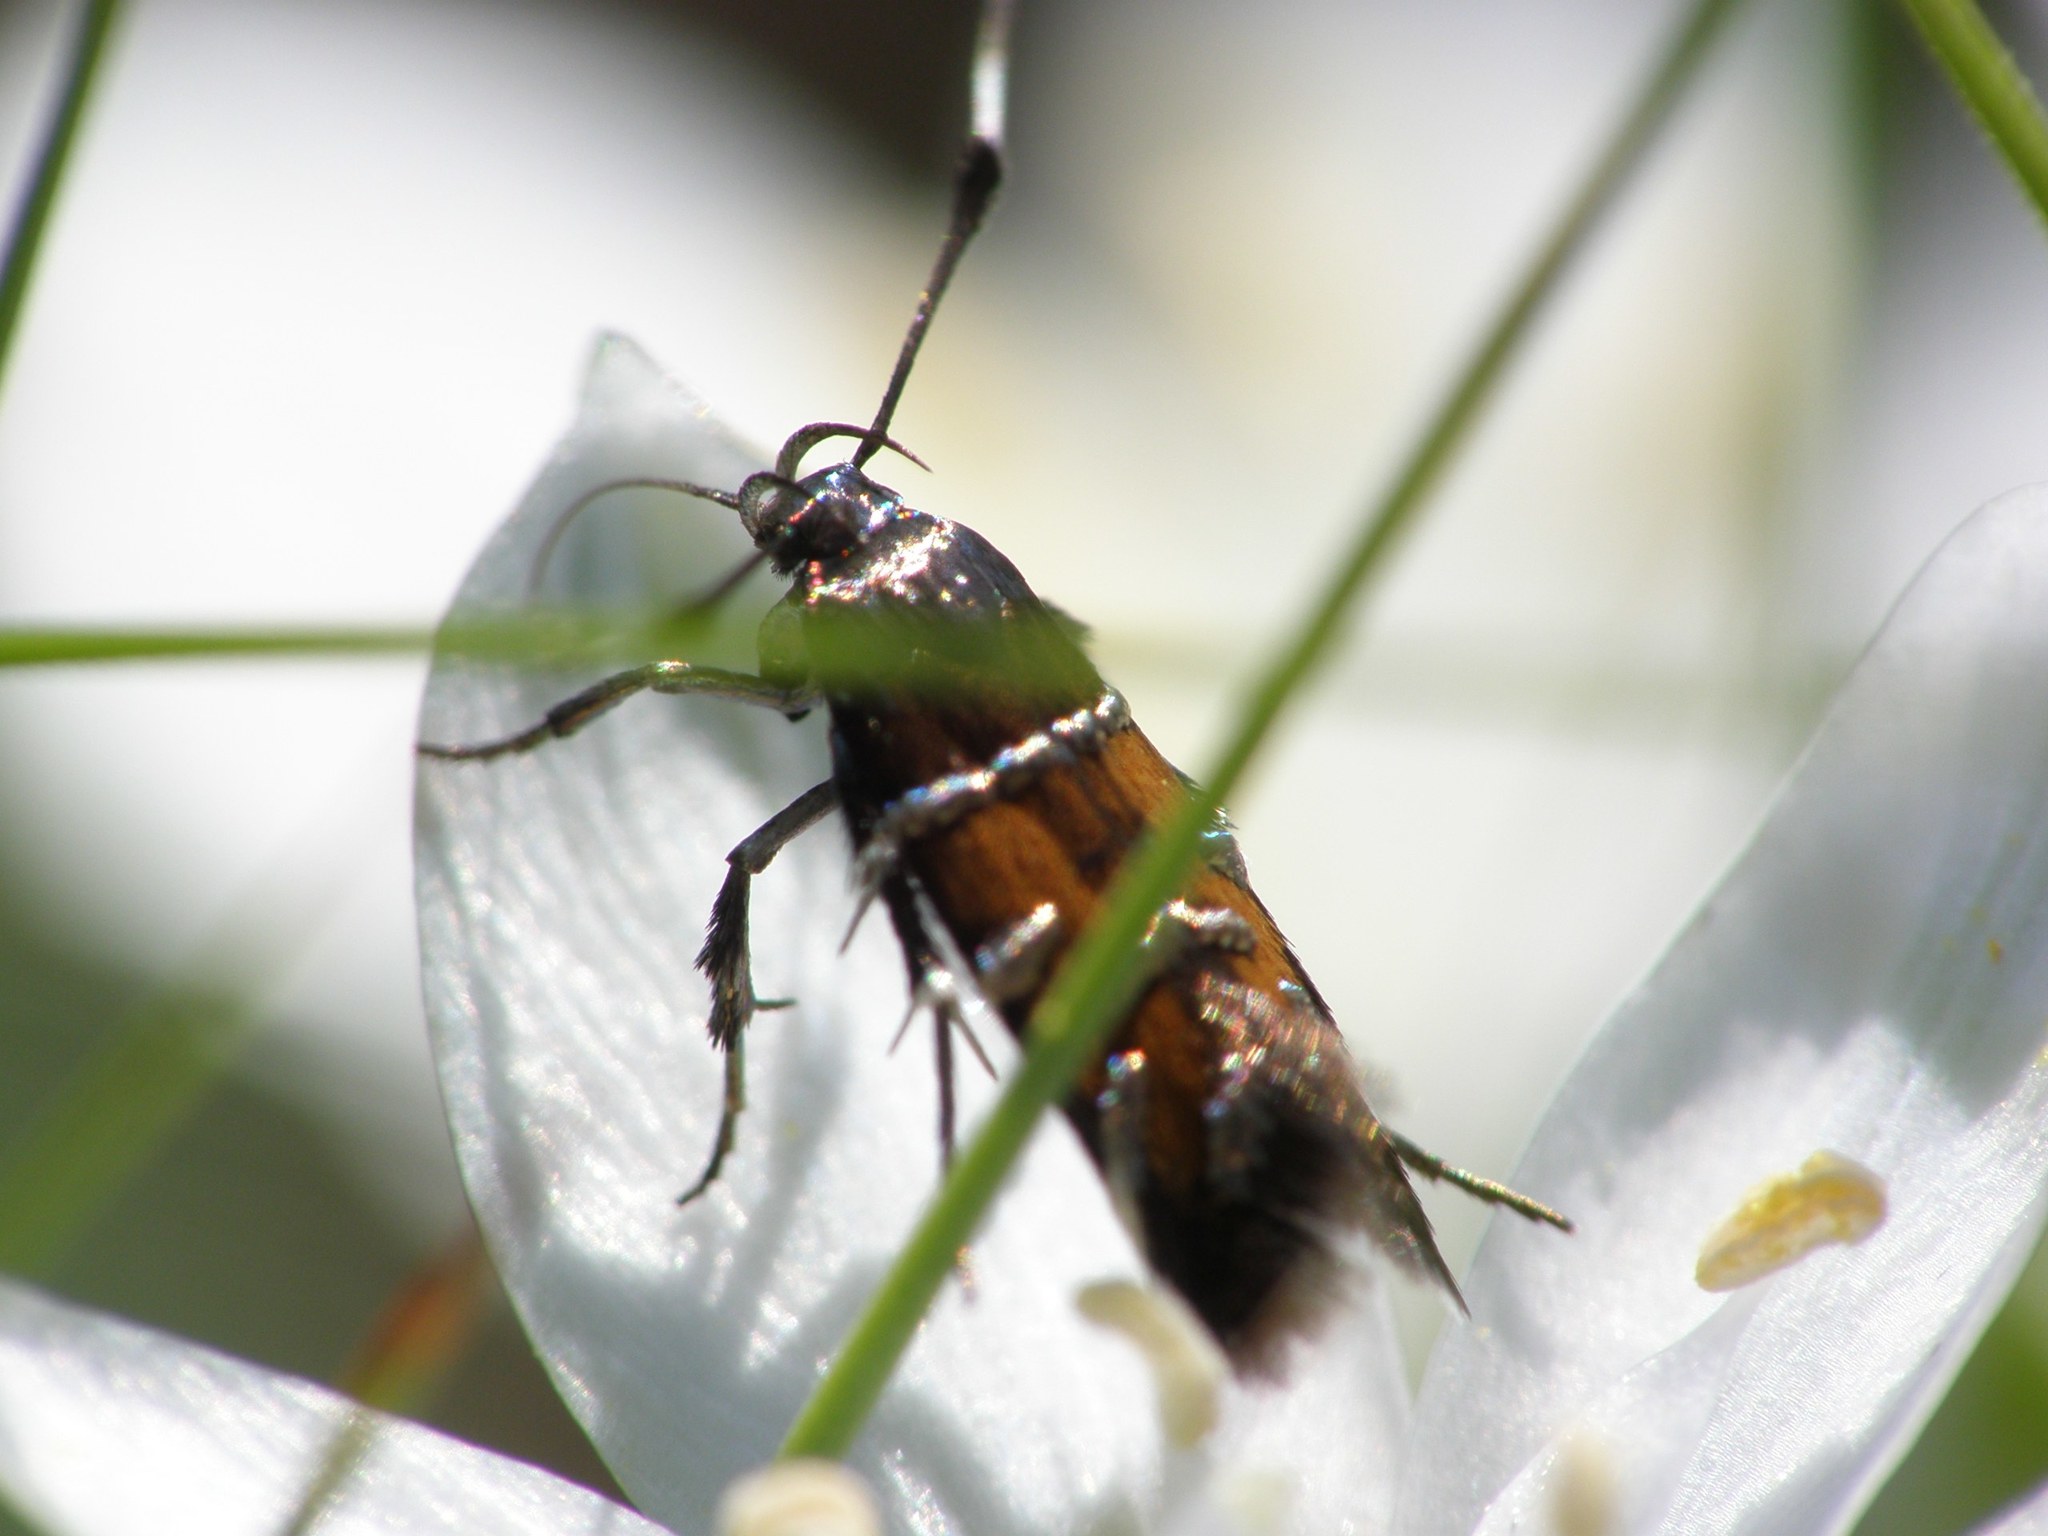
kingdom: Animalia
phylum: Arthropoda
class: Insecta
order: Lepidoptera
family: Cosmopterigidae
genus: Pancalia
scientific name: Pancalia nodosella
